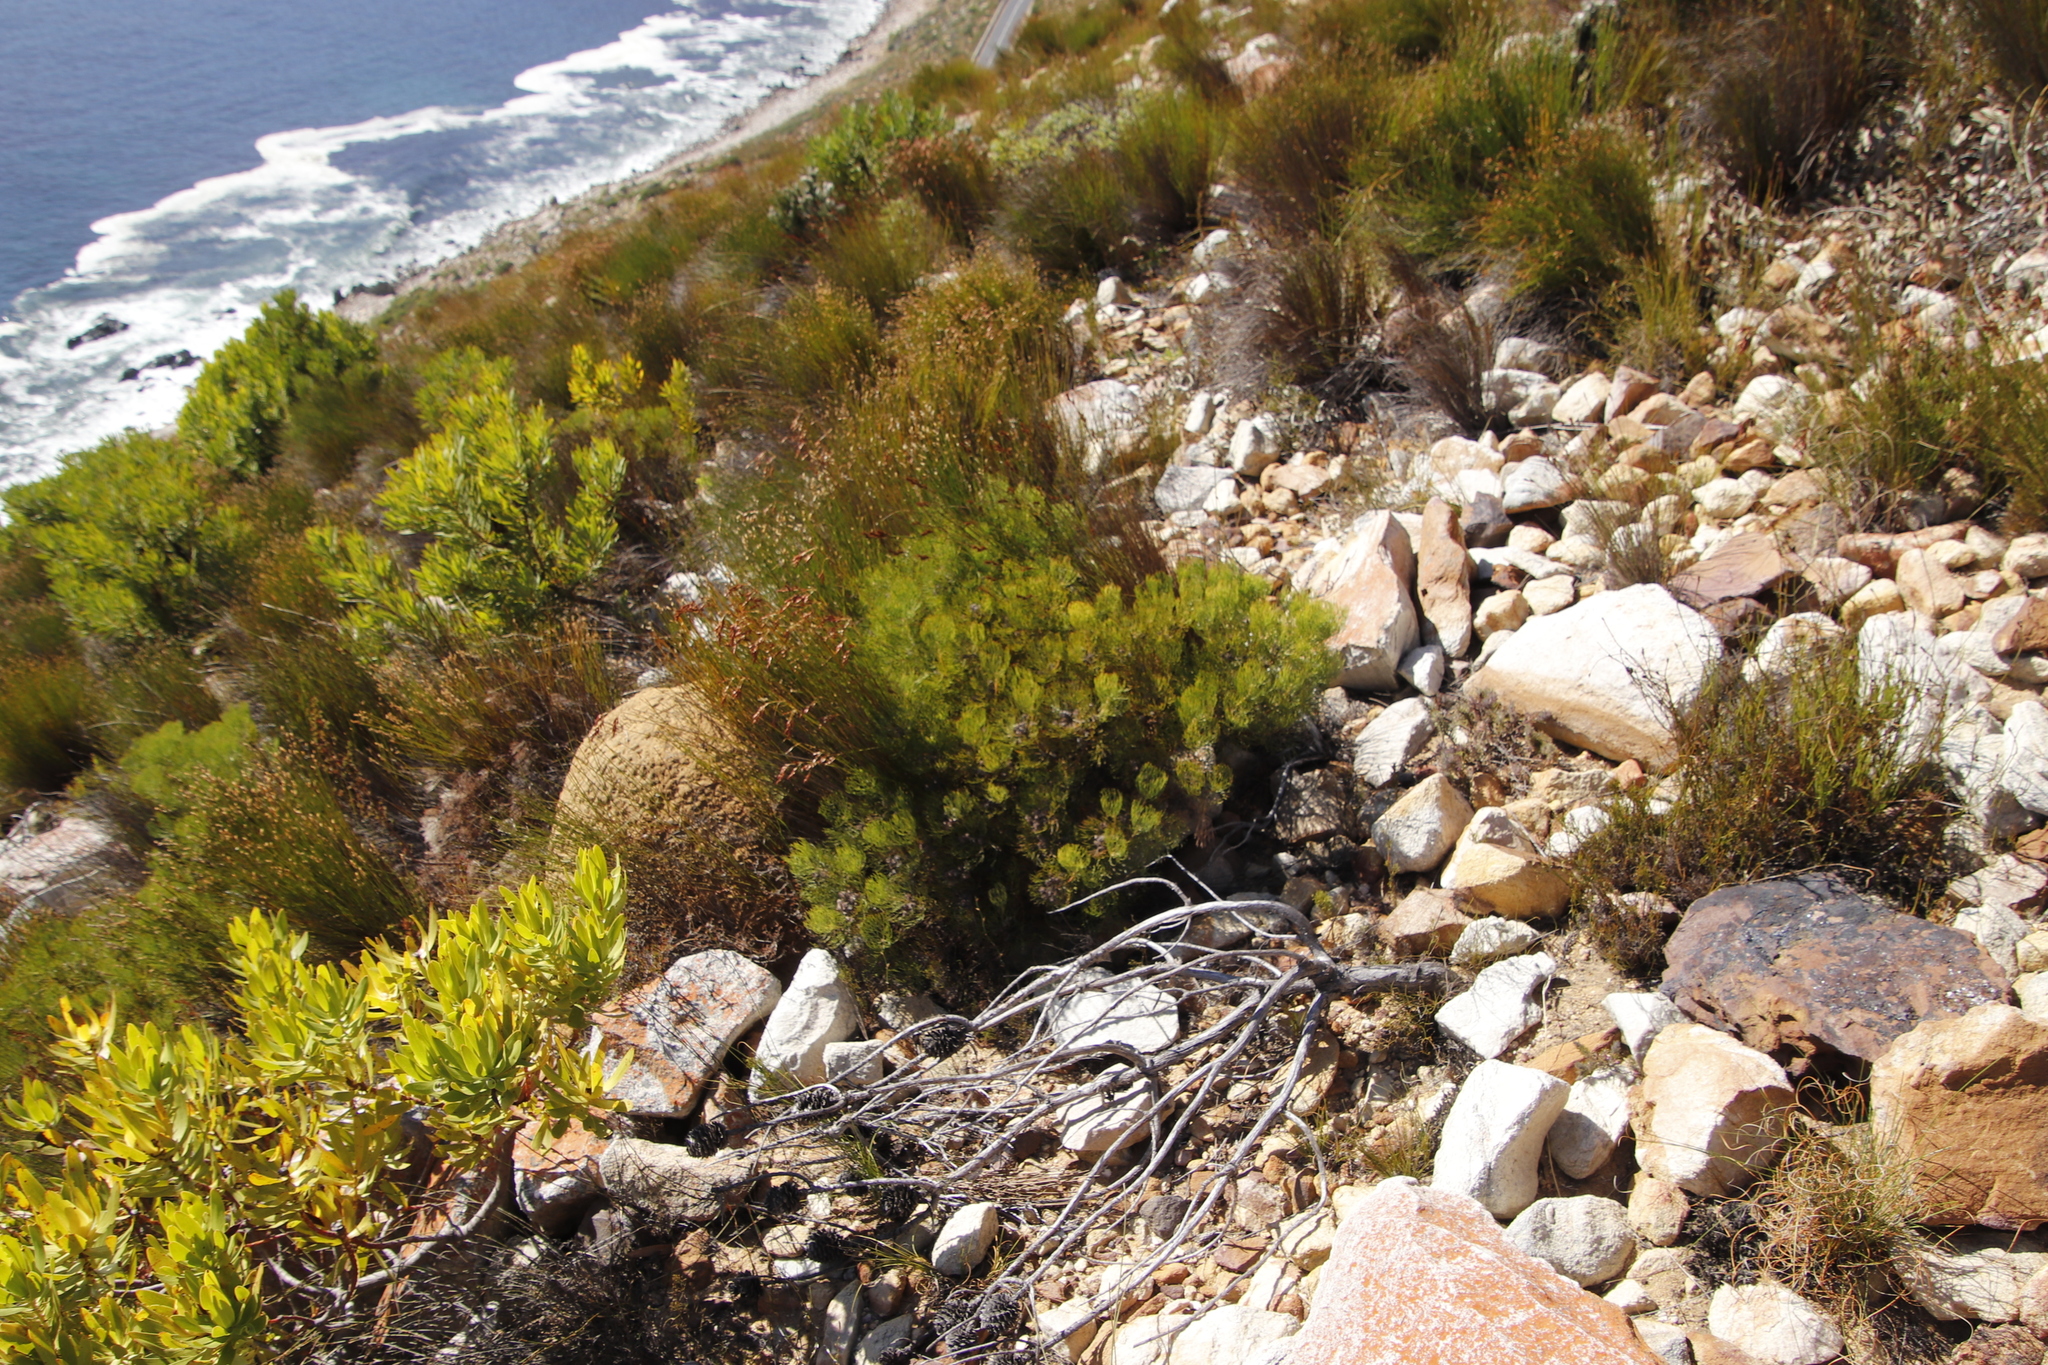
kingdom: Plantae
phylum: Tracheophyta
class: Magnoliopsida
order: Proteales
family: Proteaceae
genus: Serruria
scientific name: Serruria fasciflora
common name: Common pin spiderhead
